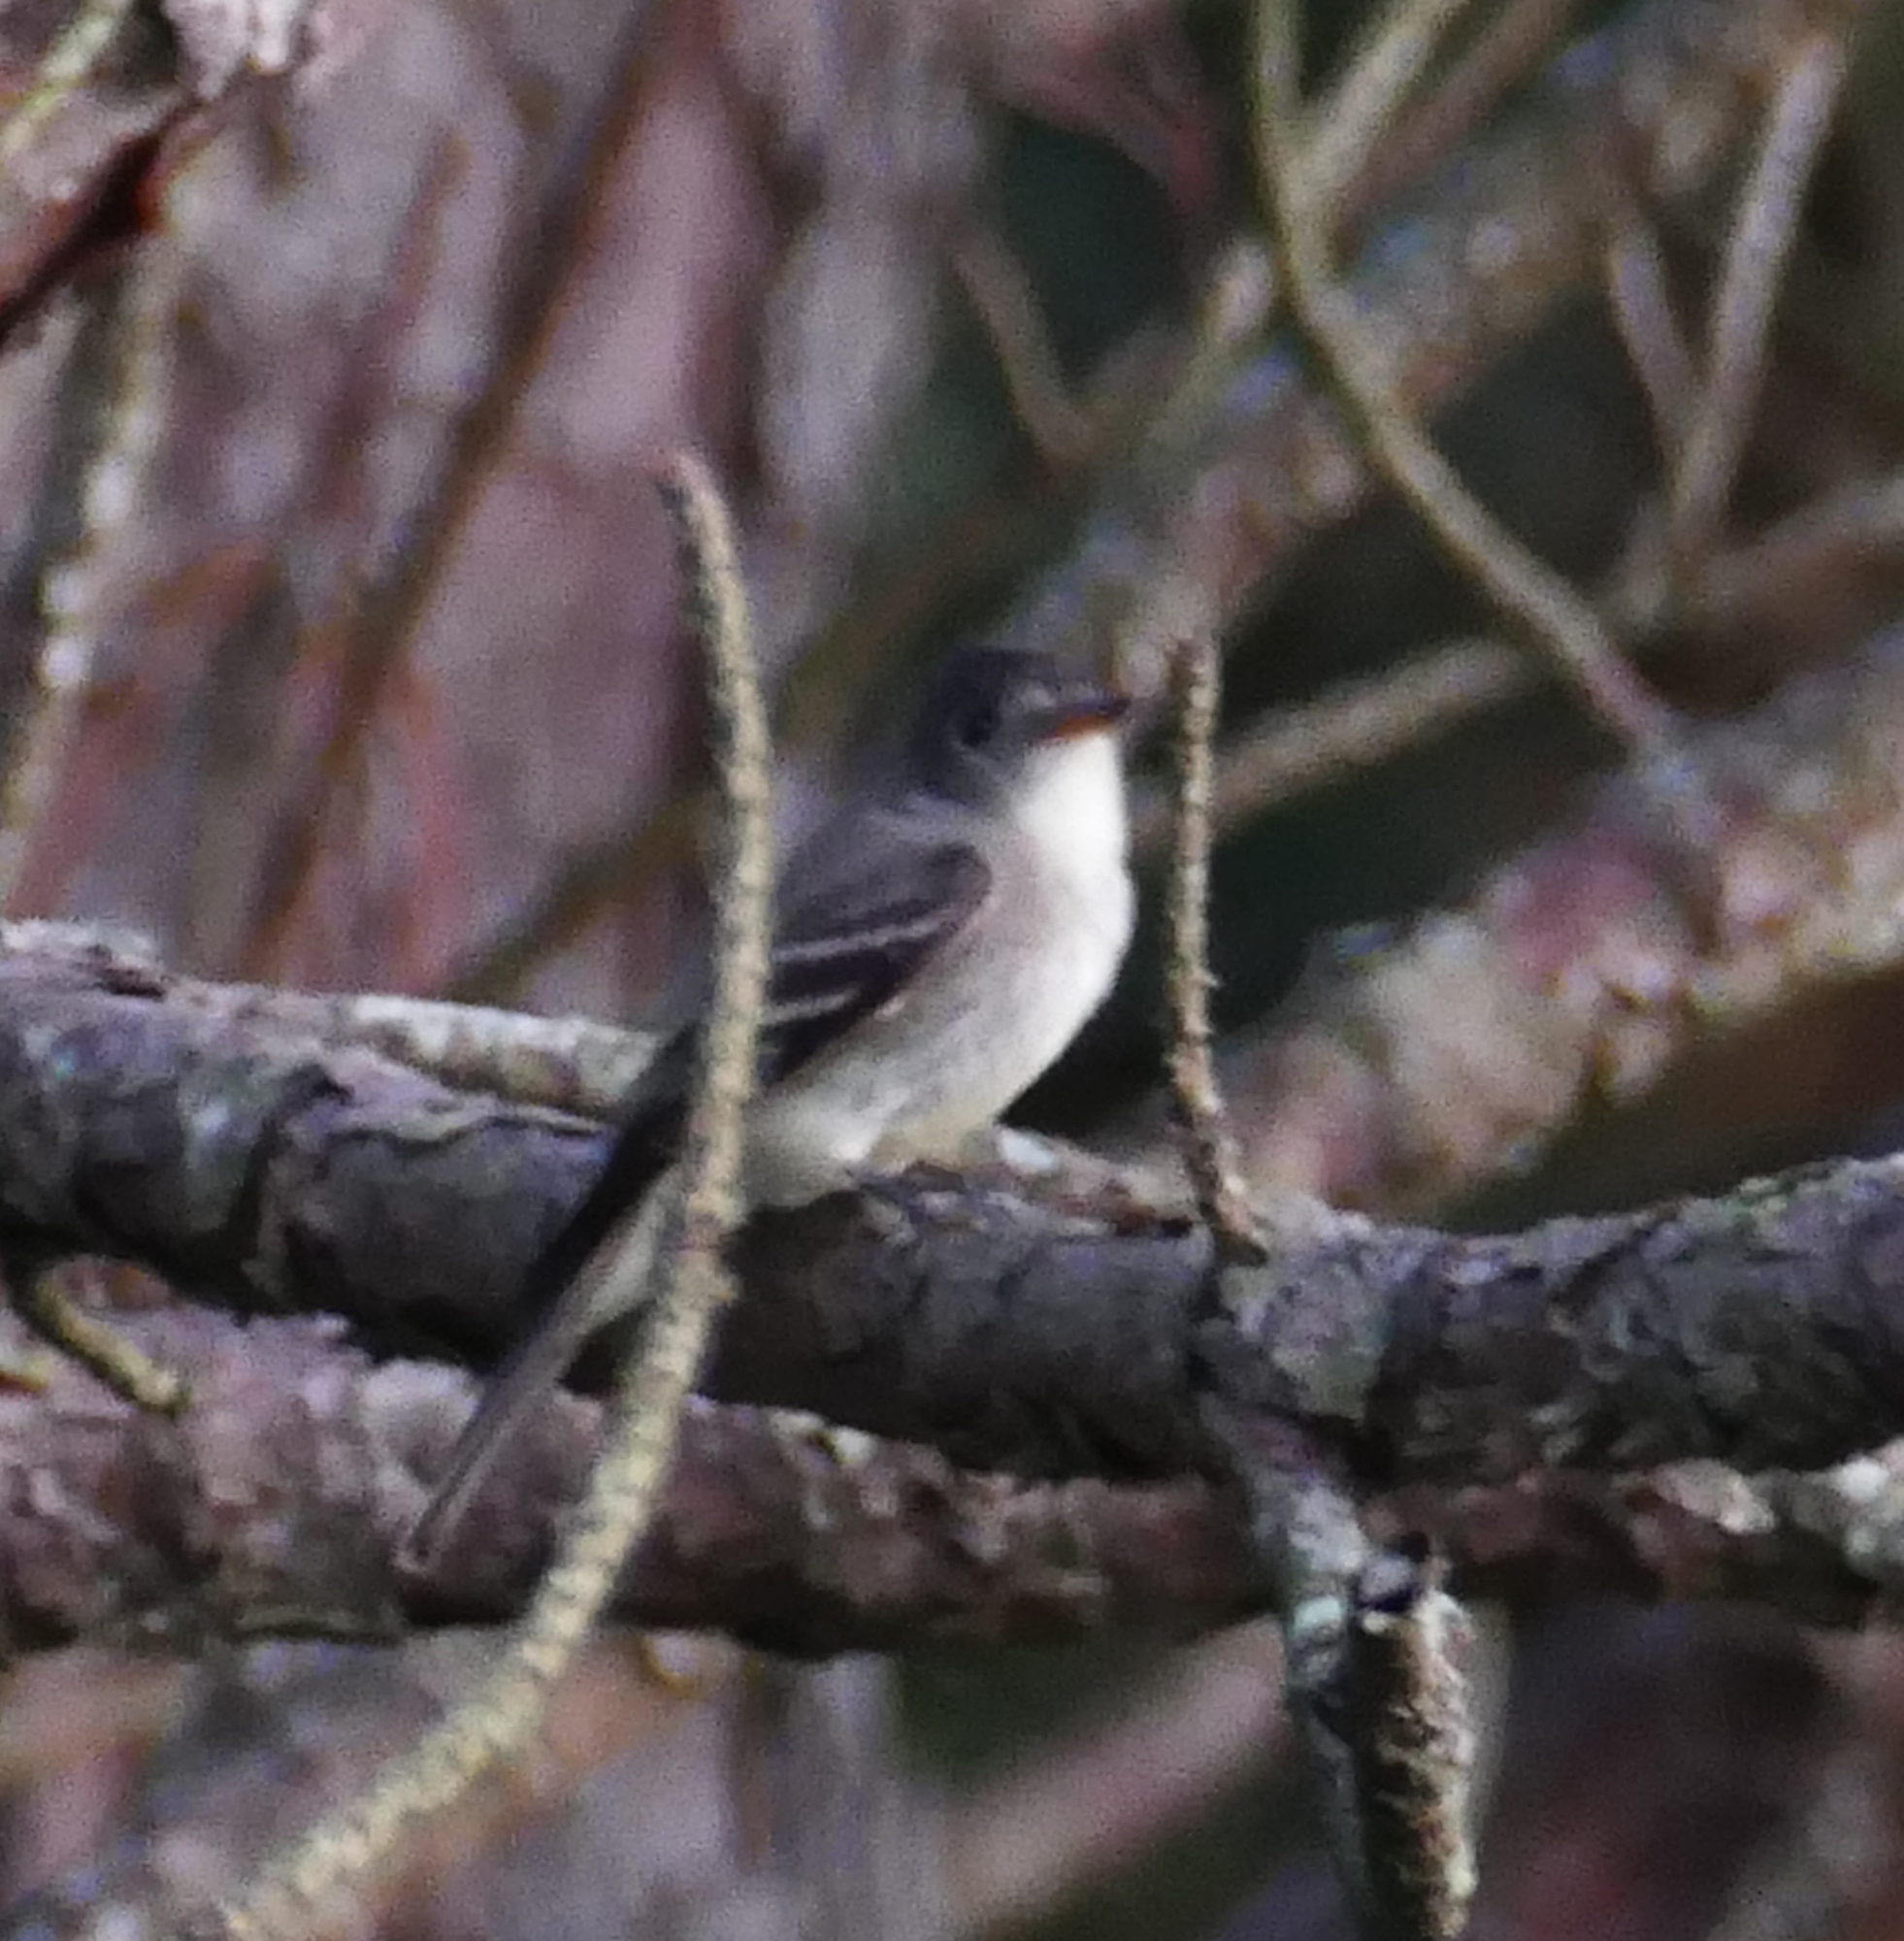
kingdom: Animalia
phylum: Chordata
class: Aves
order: Passeriformes
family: Tyrannidae
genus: Contopus
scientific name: Contopus virens
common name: Eastern wood-pewee
